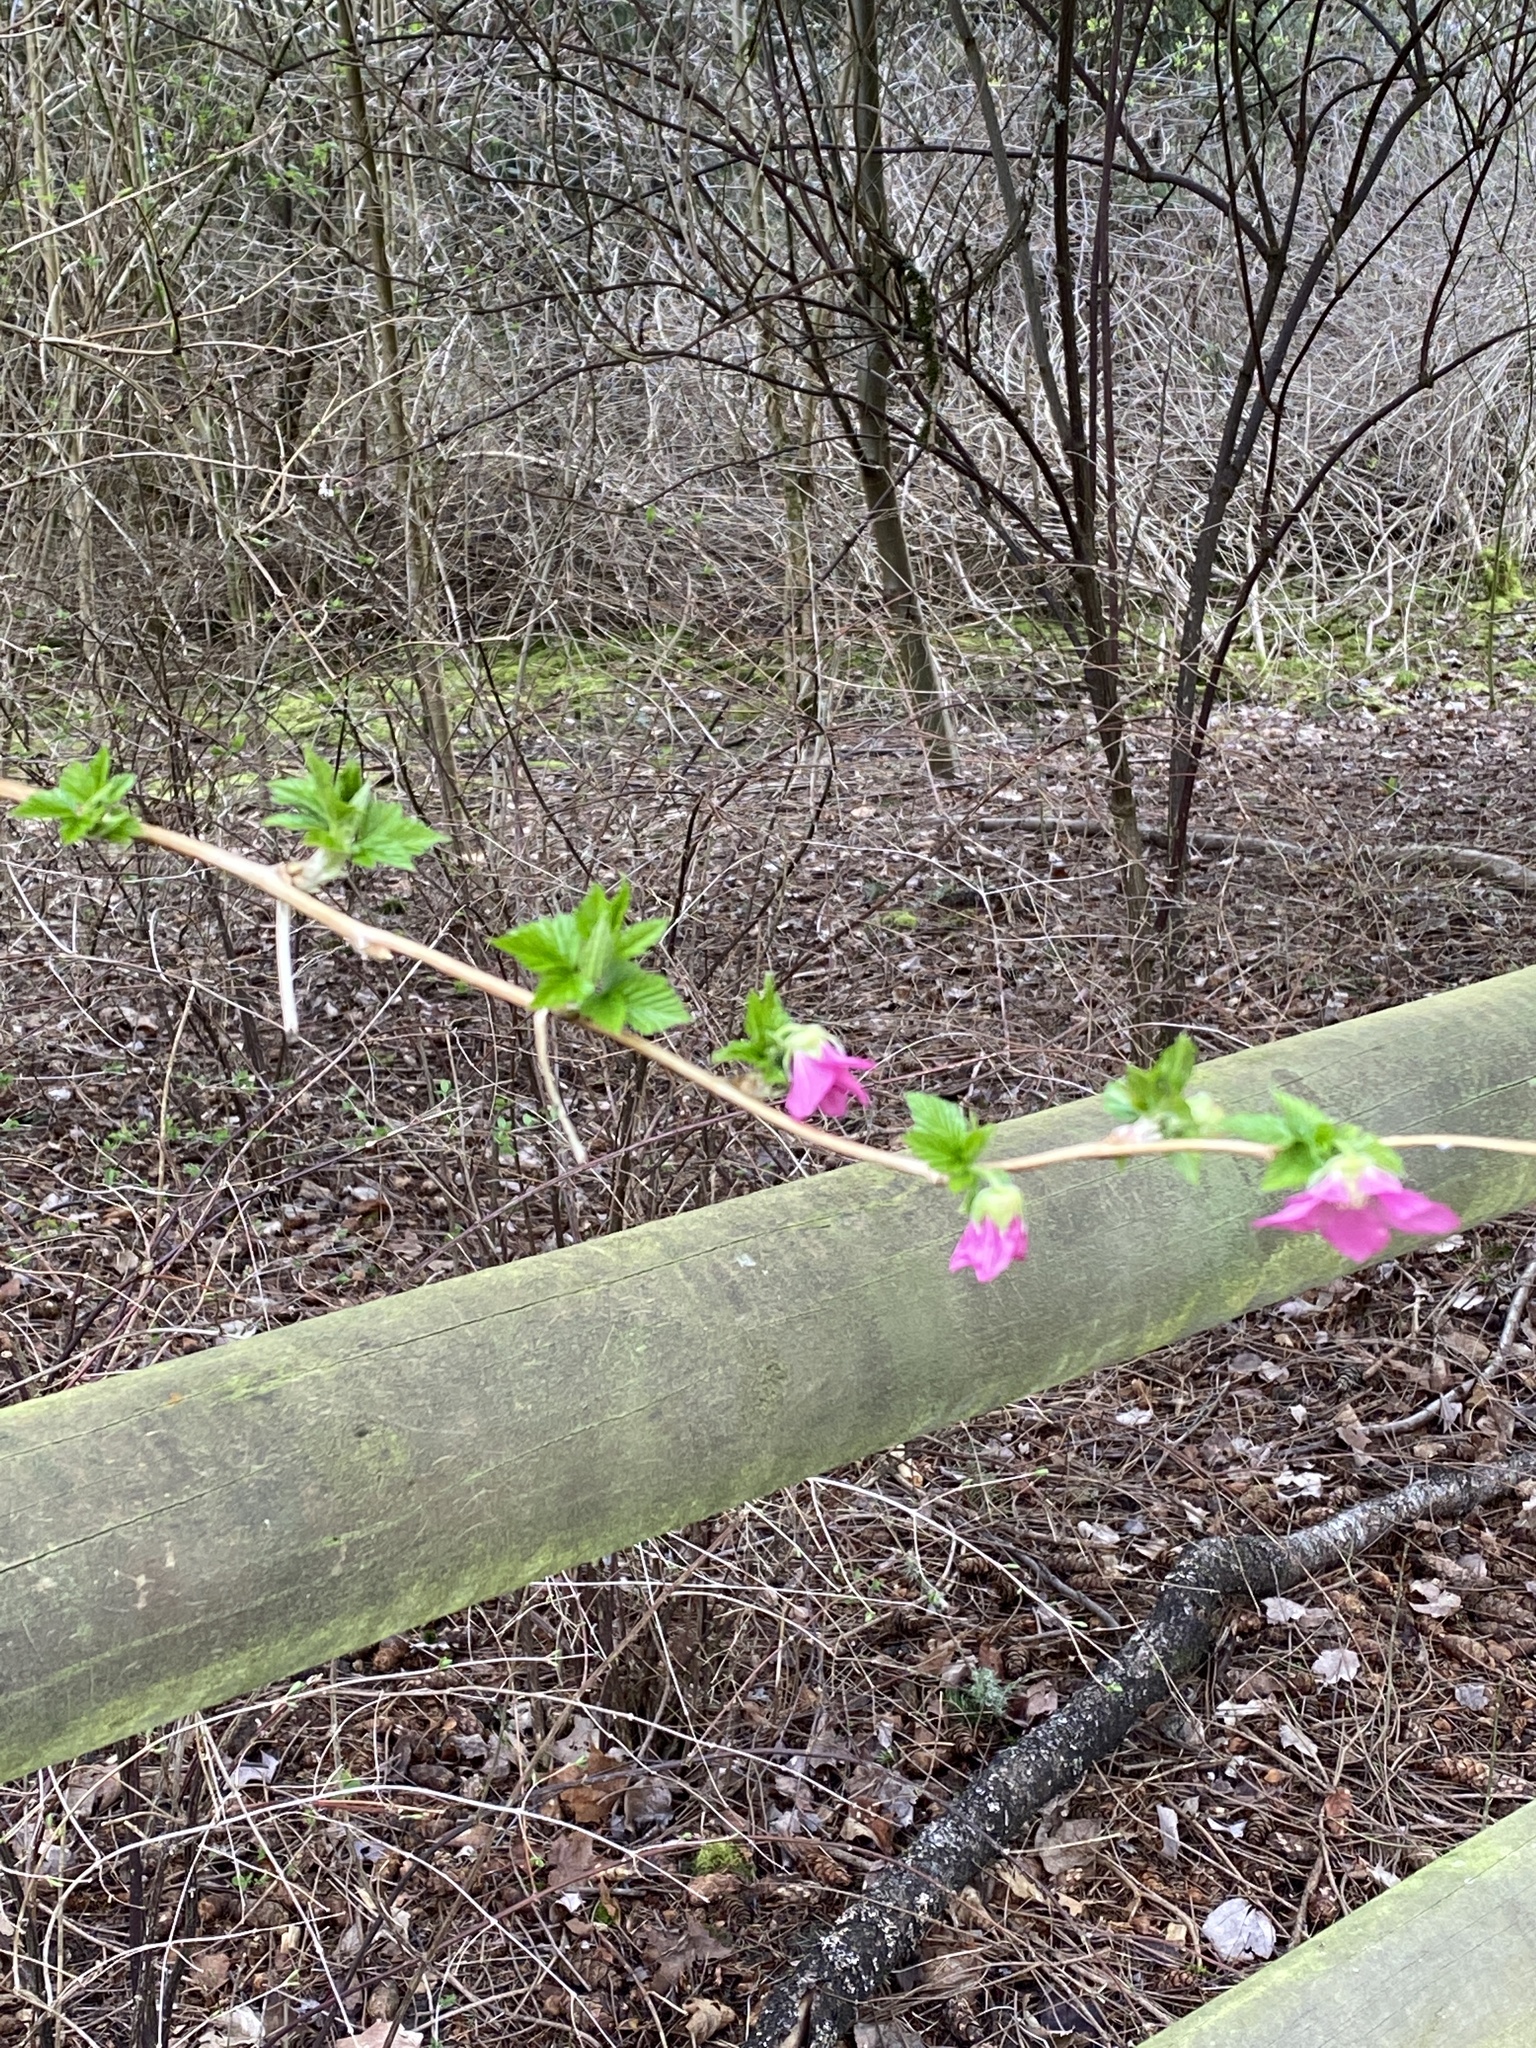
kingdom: Plantae
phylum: Tracheophyta
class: Magnoliopsida
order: Rosales
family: Rosaceae
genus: Rubus
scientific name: Rubus spectabilis
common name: Salmonberry
